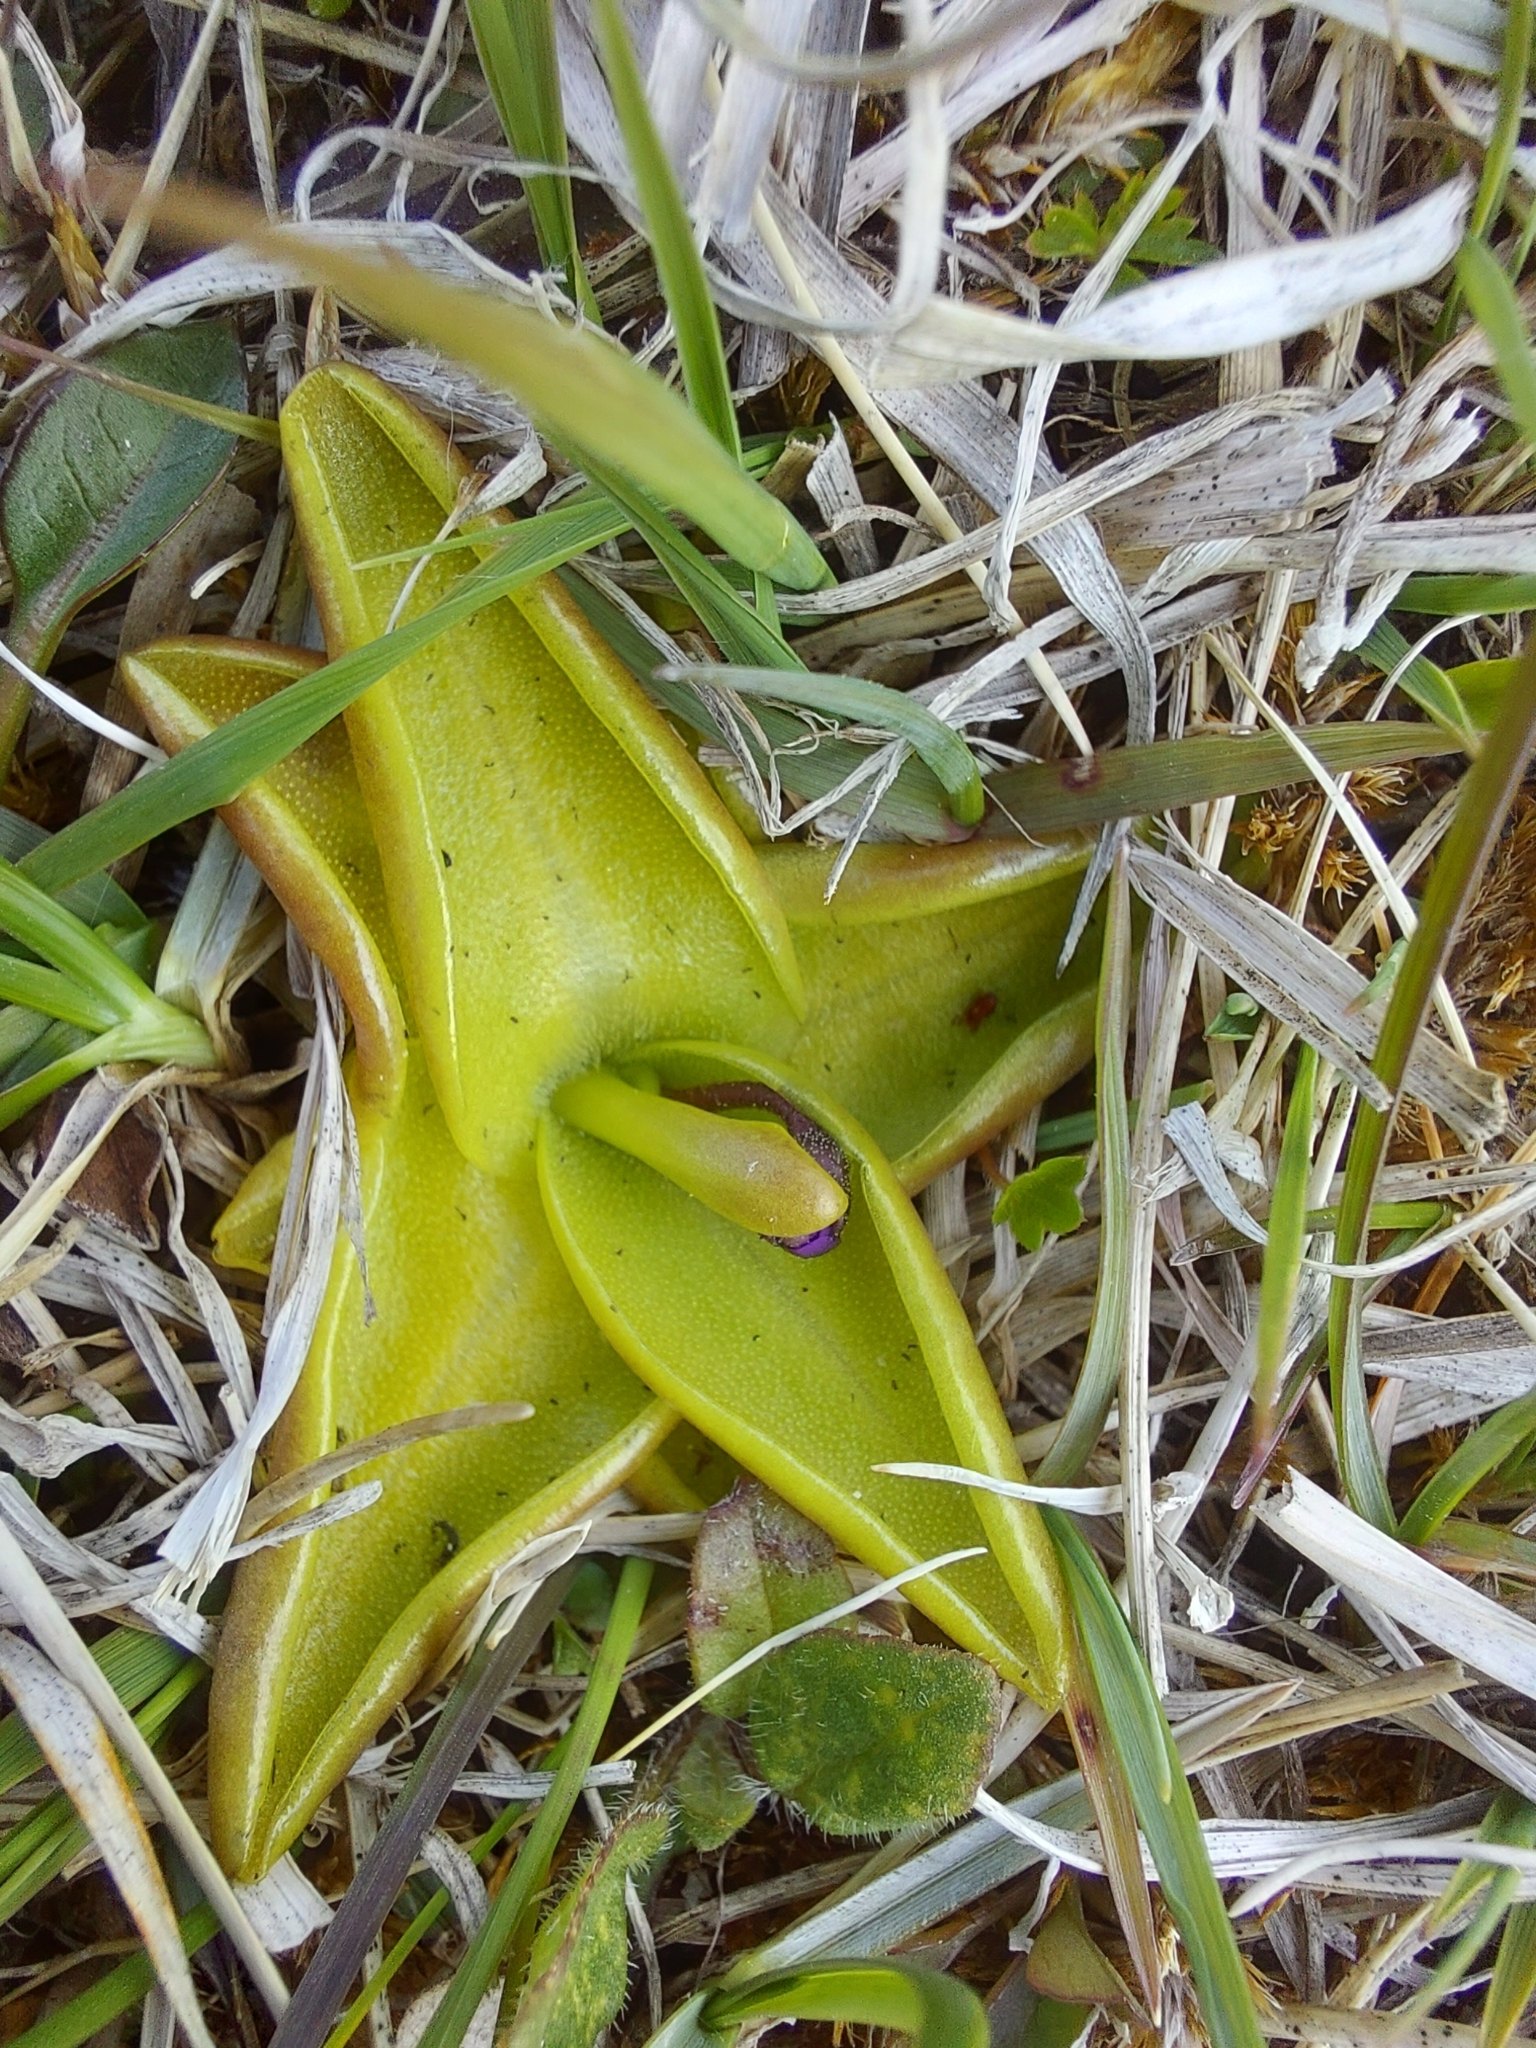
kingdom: Plantae
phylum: Tracheophyta
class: Magnoliopsida
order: Lamiales
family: Lentibulariaceae
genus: Pinguicula
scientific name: Pinguicula vulgaris
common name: Common butterwort
